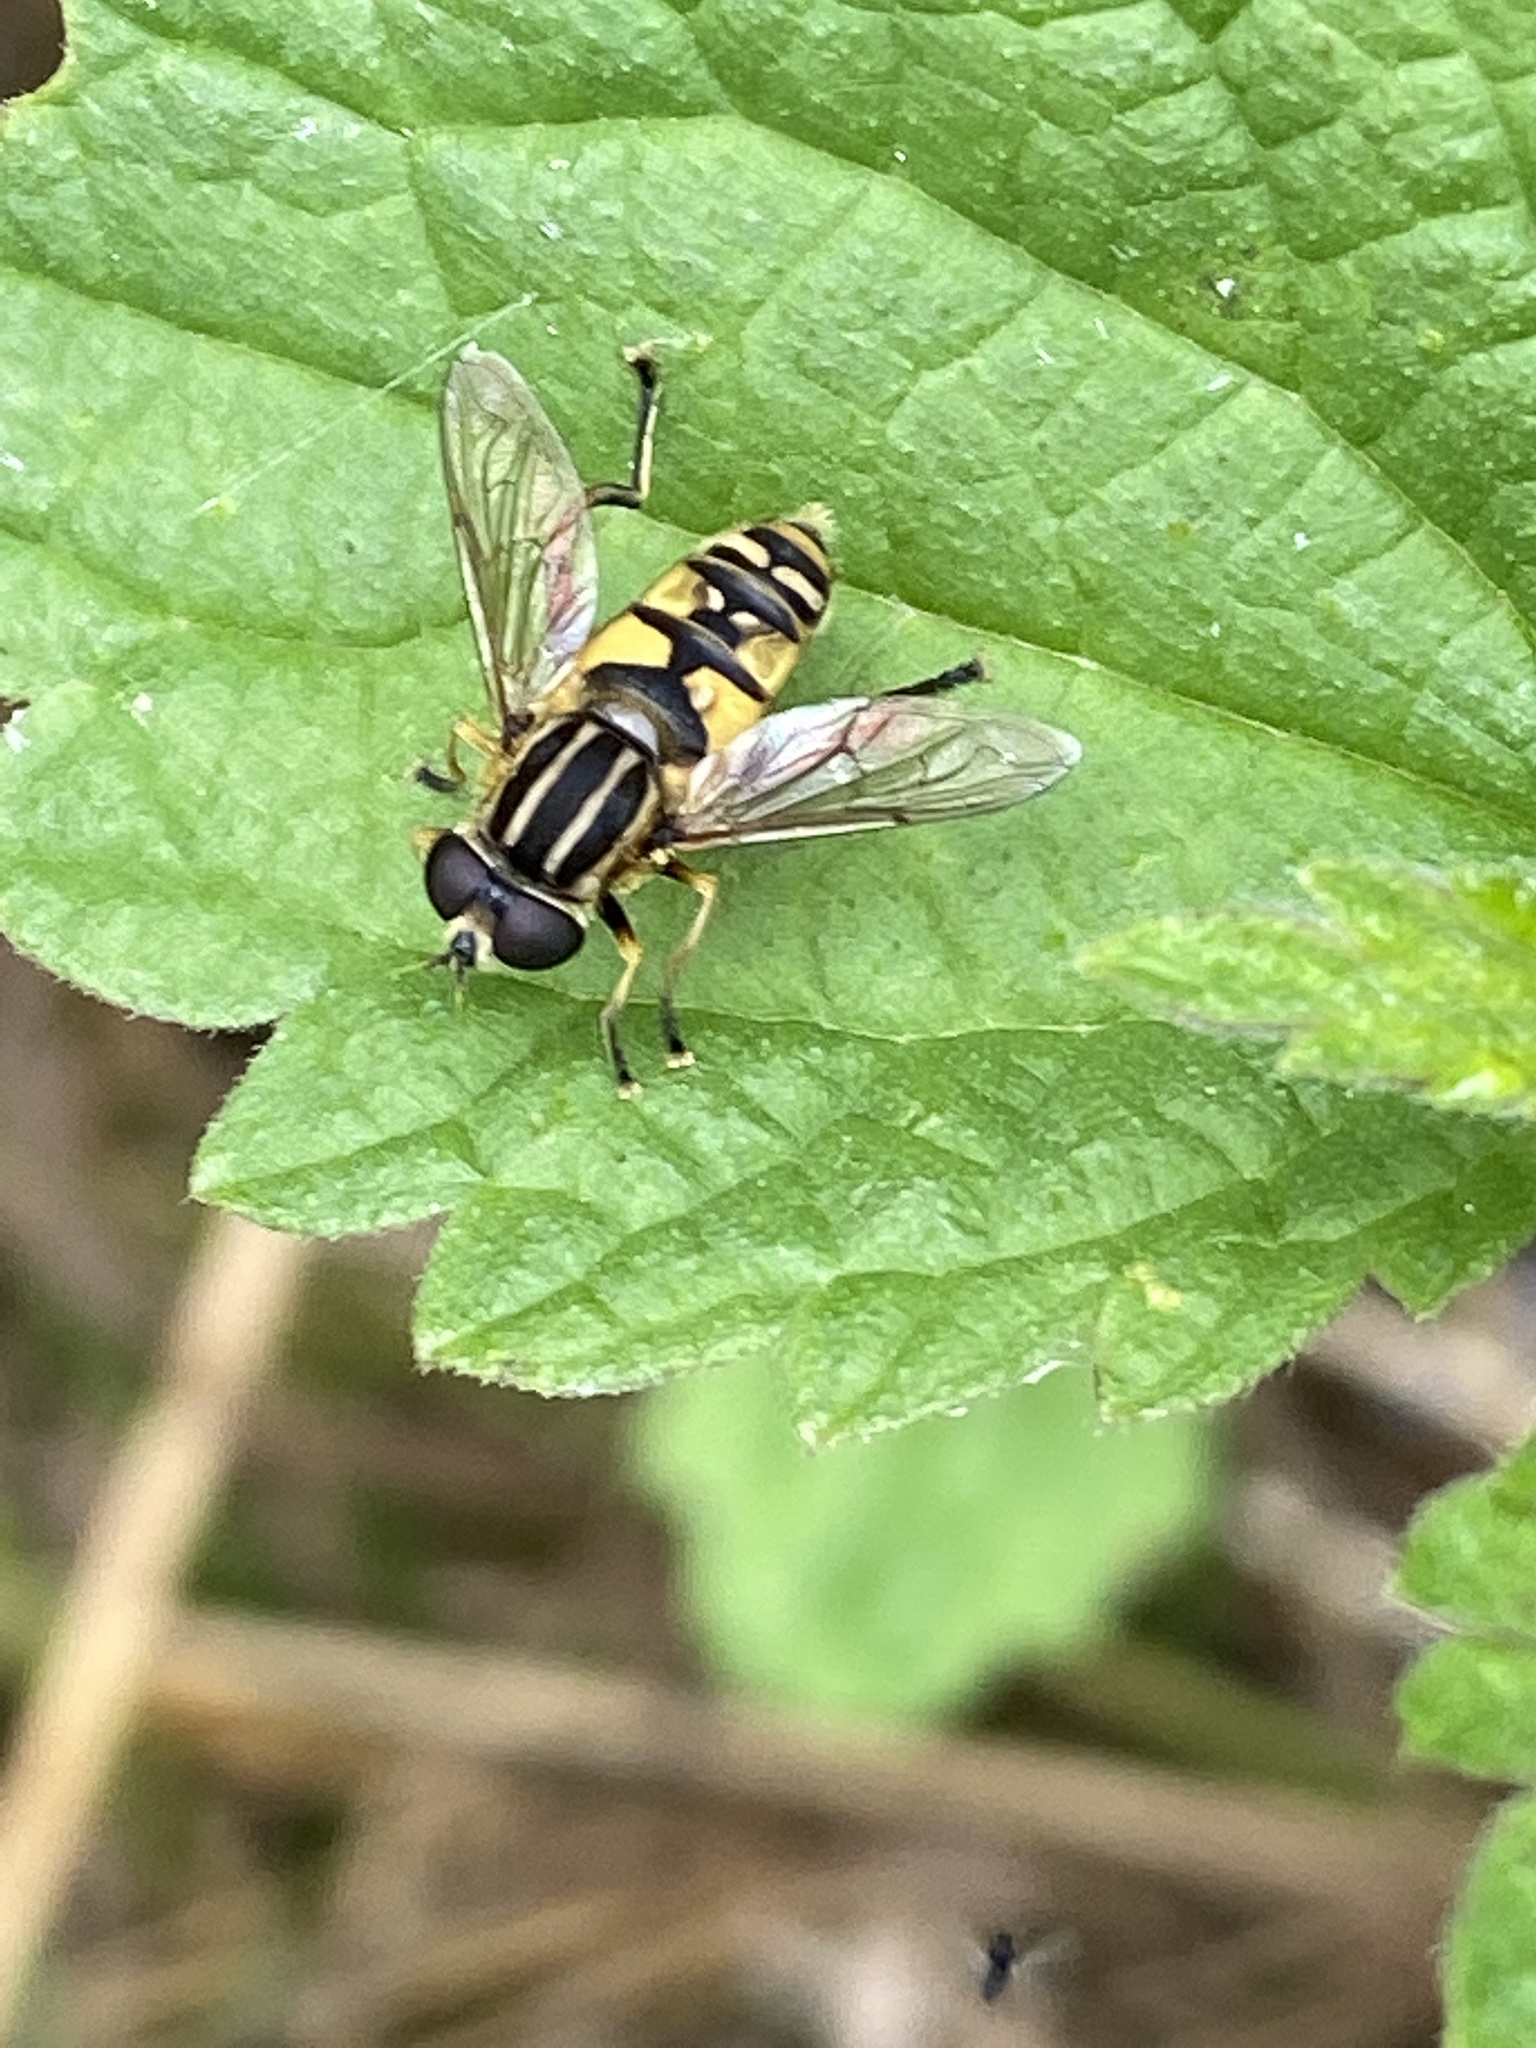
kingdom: Animalia
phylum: Arthropoda
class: Insecta
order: Diptera
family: Syrphidae
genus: Helophilus
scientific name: Helophilus pendulus
